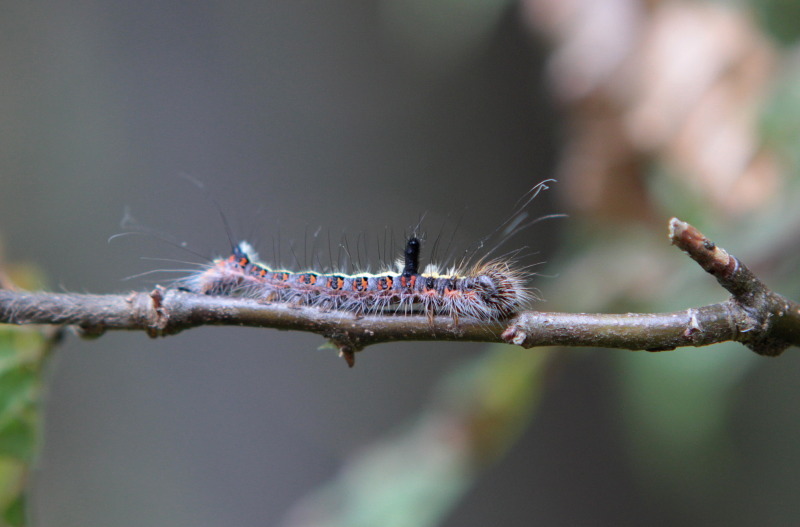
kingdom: Animalia
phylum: Arthropoda
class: Insecta
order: Lepidoptera
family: Noctuidae
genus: Acronicta
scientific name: Acronicta psi
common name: Grey dagger
